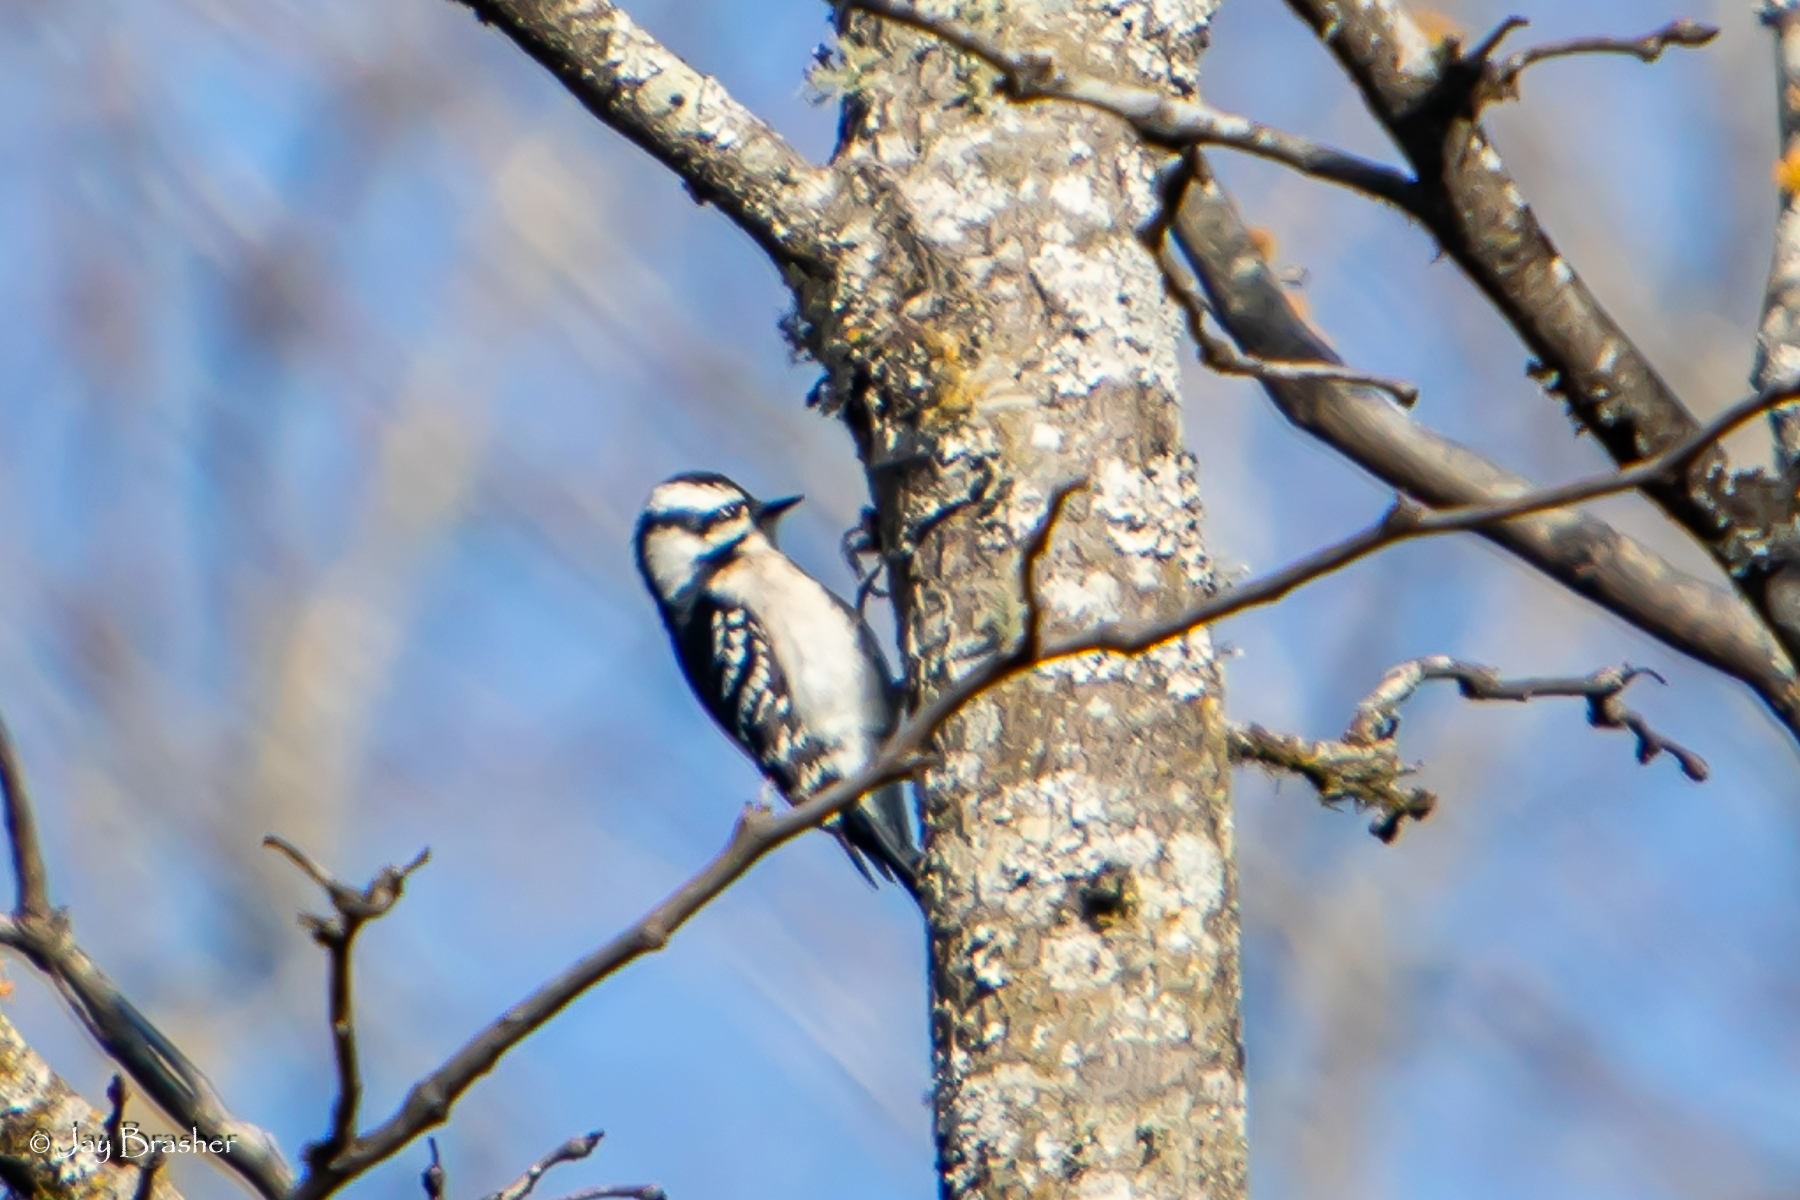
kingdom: Animalia
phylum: Chordata
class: Aves
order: Piciformes
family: Picidae
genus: Dryobates
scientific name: Dryobates pubescens
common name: Downy woodpecker
